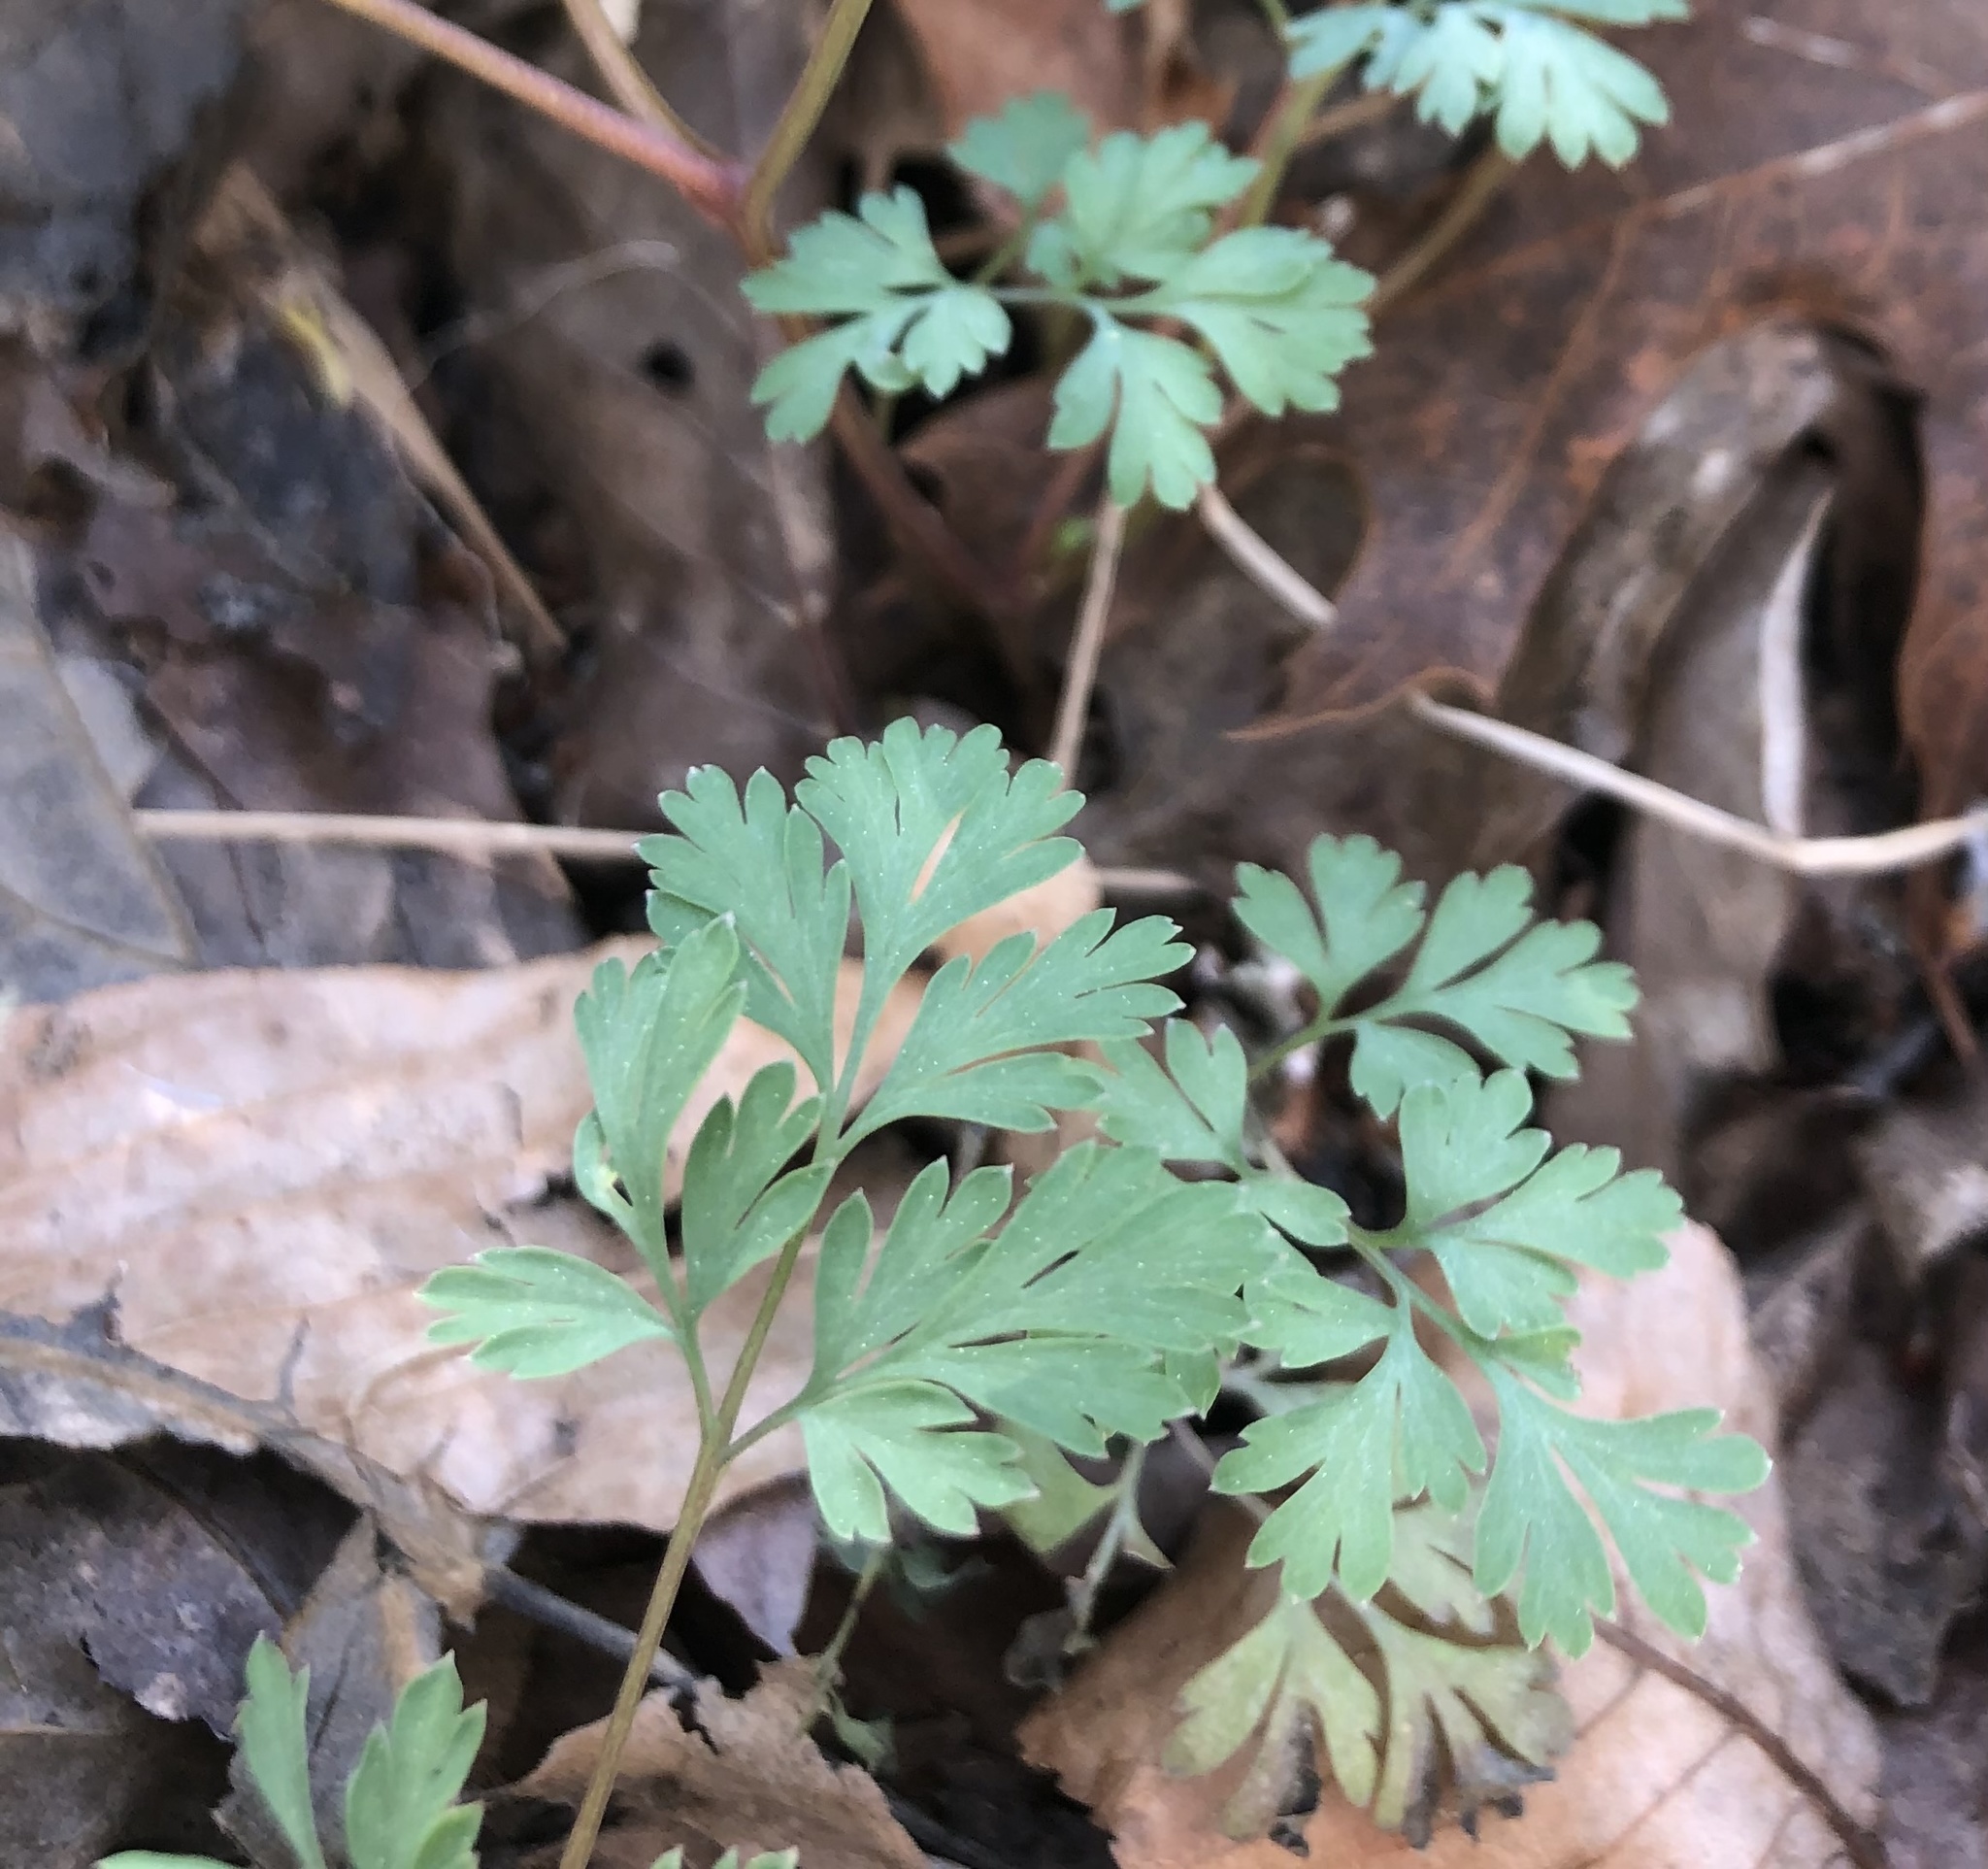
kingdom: Plantae
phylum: Tracheophyta
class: Magnoliopsida
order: Ranunculales
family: Papaveraceae
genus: Corydalis
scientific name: Corydalis flavula
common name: Yellow corydalis
